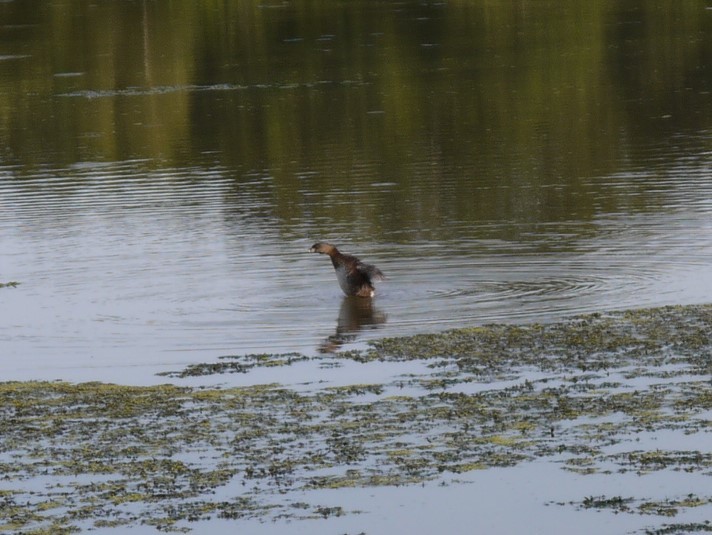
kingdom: Animalia
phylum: Chordata
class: Aves
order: Podicipediformes
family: Podicipedidae
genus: Podilymbus
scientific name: Podilymbus podiceps
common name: Pied-billed grebe
